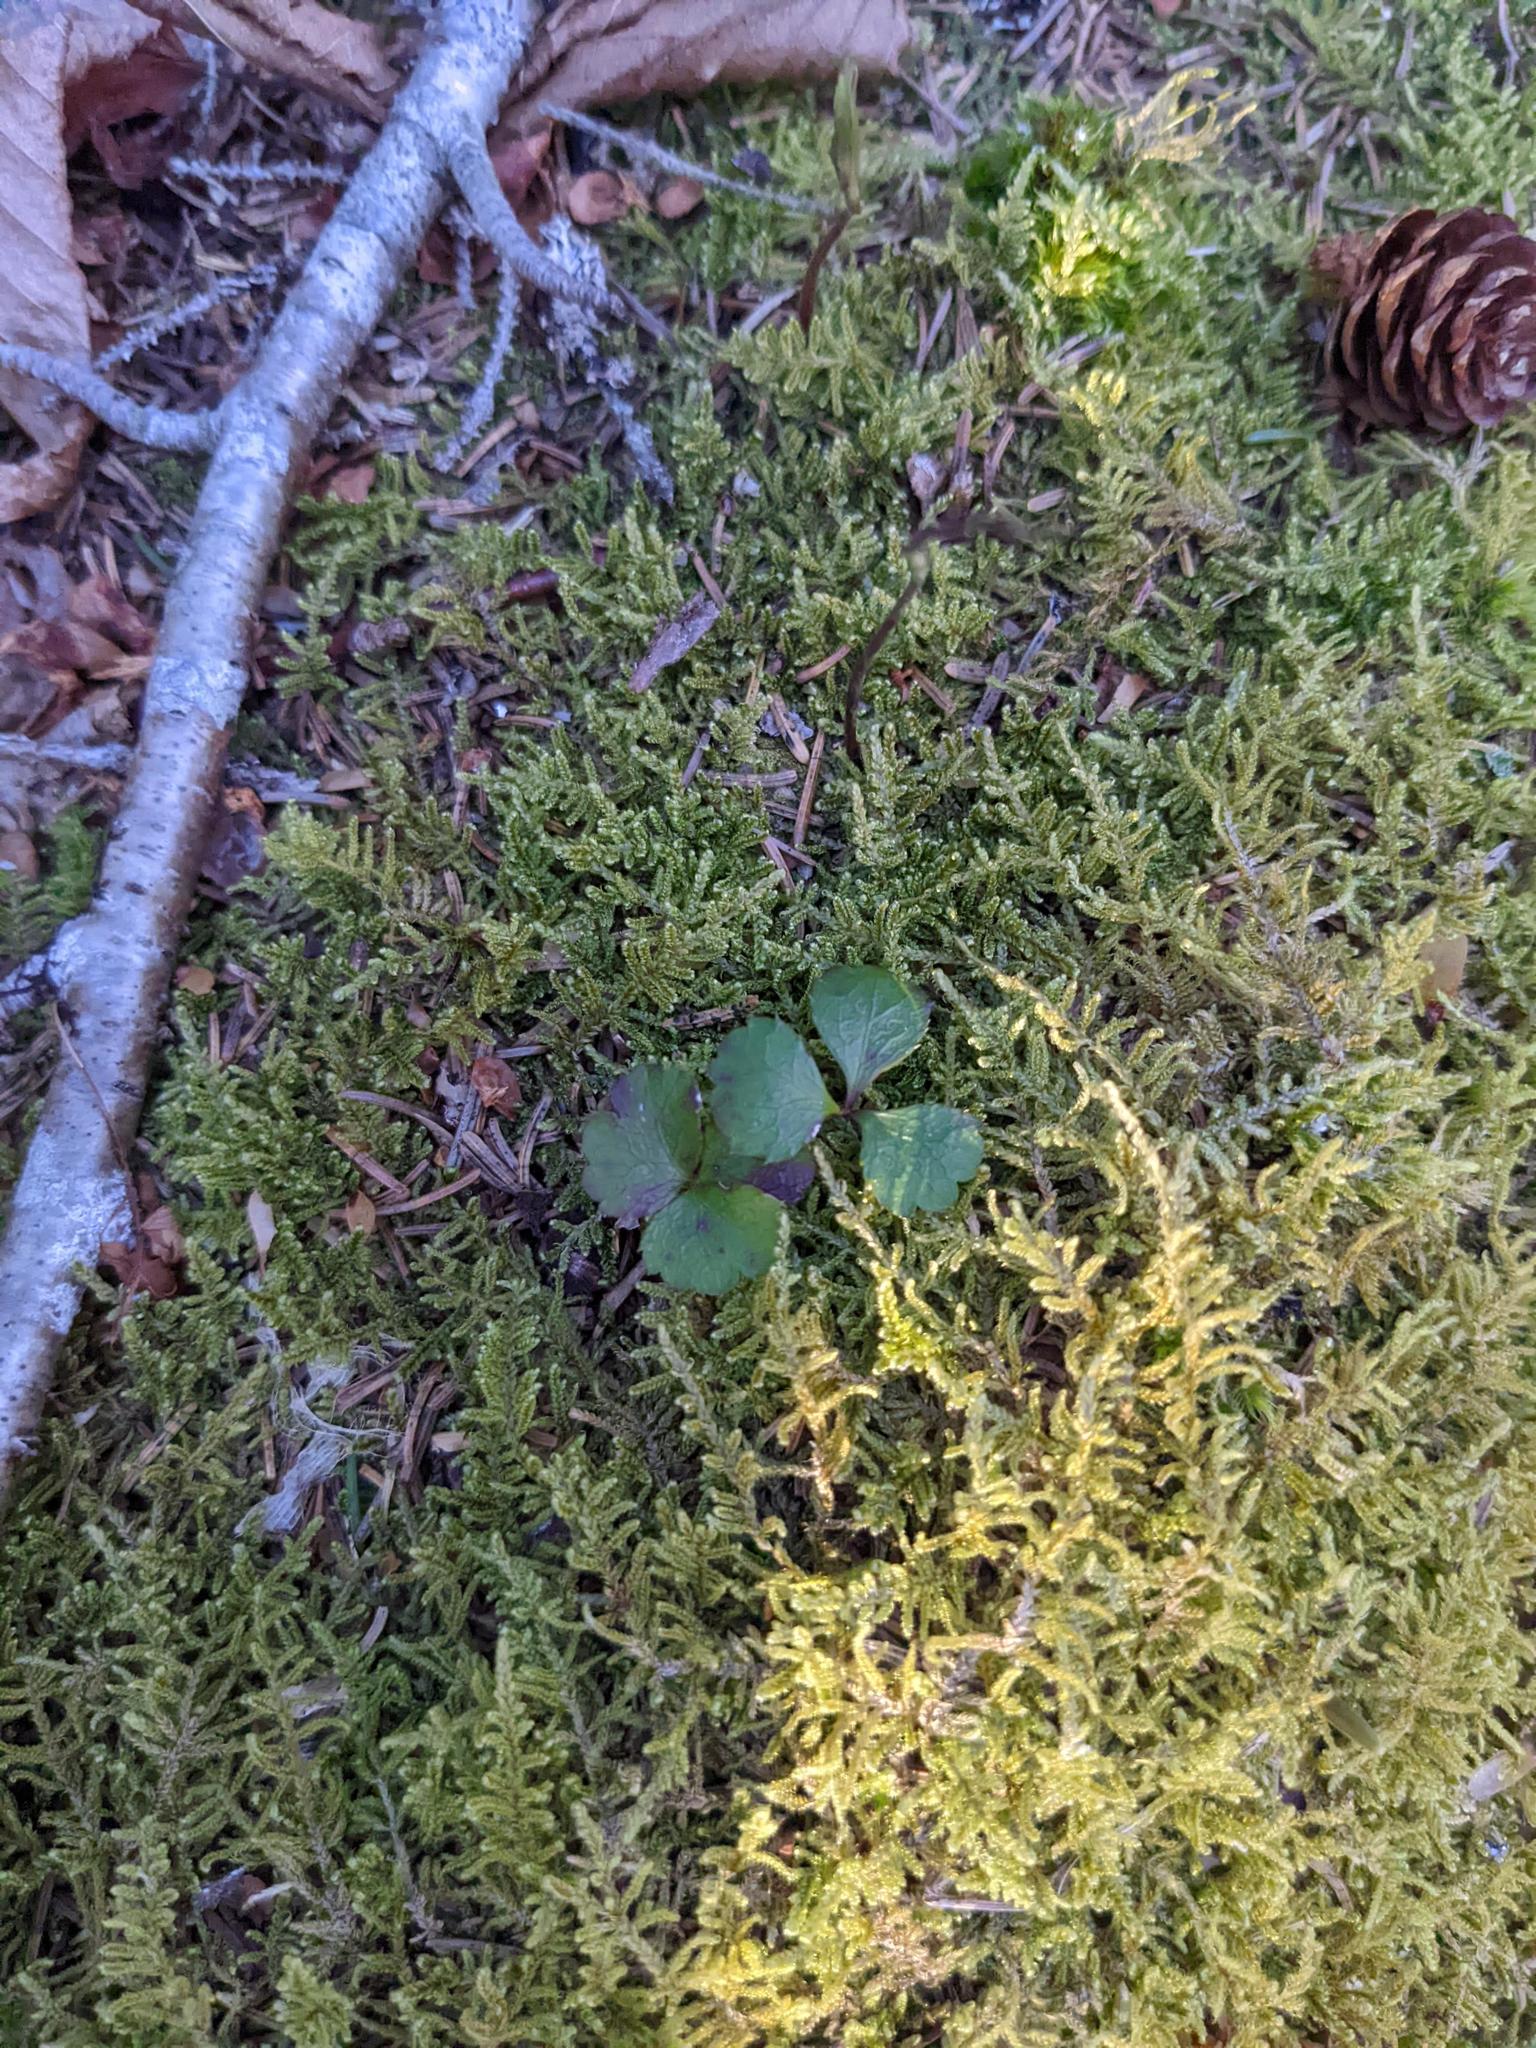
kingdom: Plantae
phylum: Tracheophyta
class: Magnoliopsida
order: Ranunculales
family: Ranunculaceae
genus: Coptis
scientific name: Coptis trifolia
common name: Canker-root
